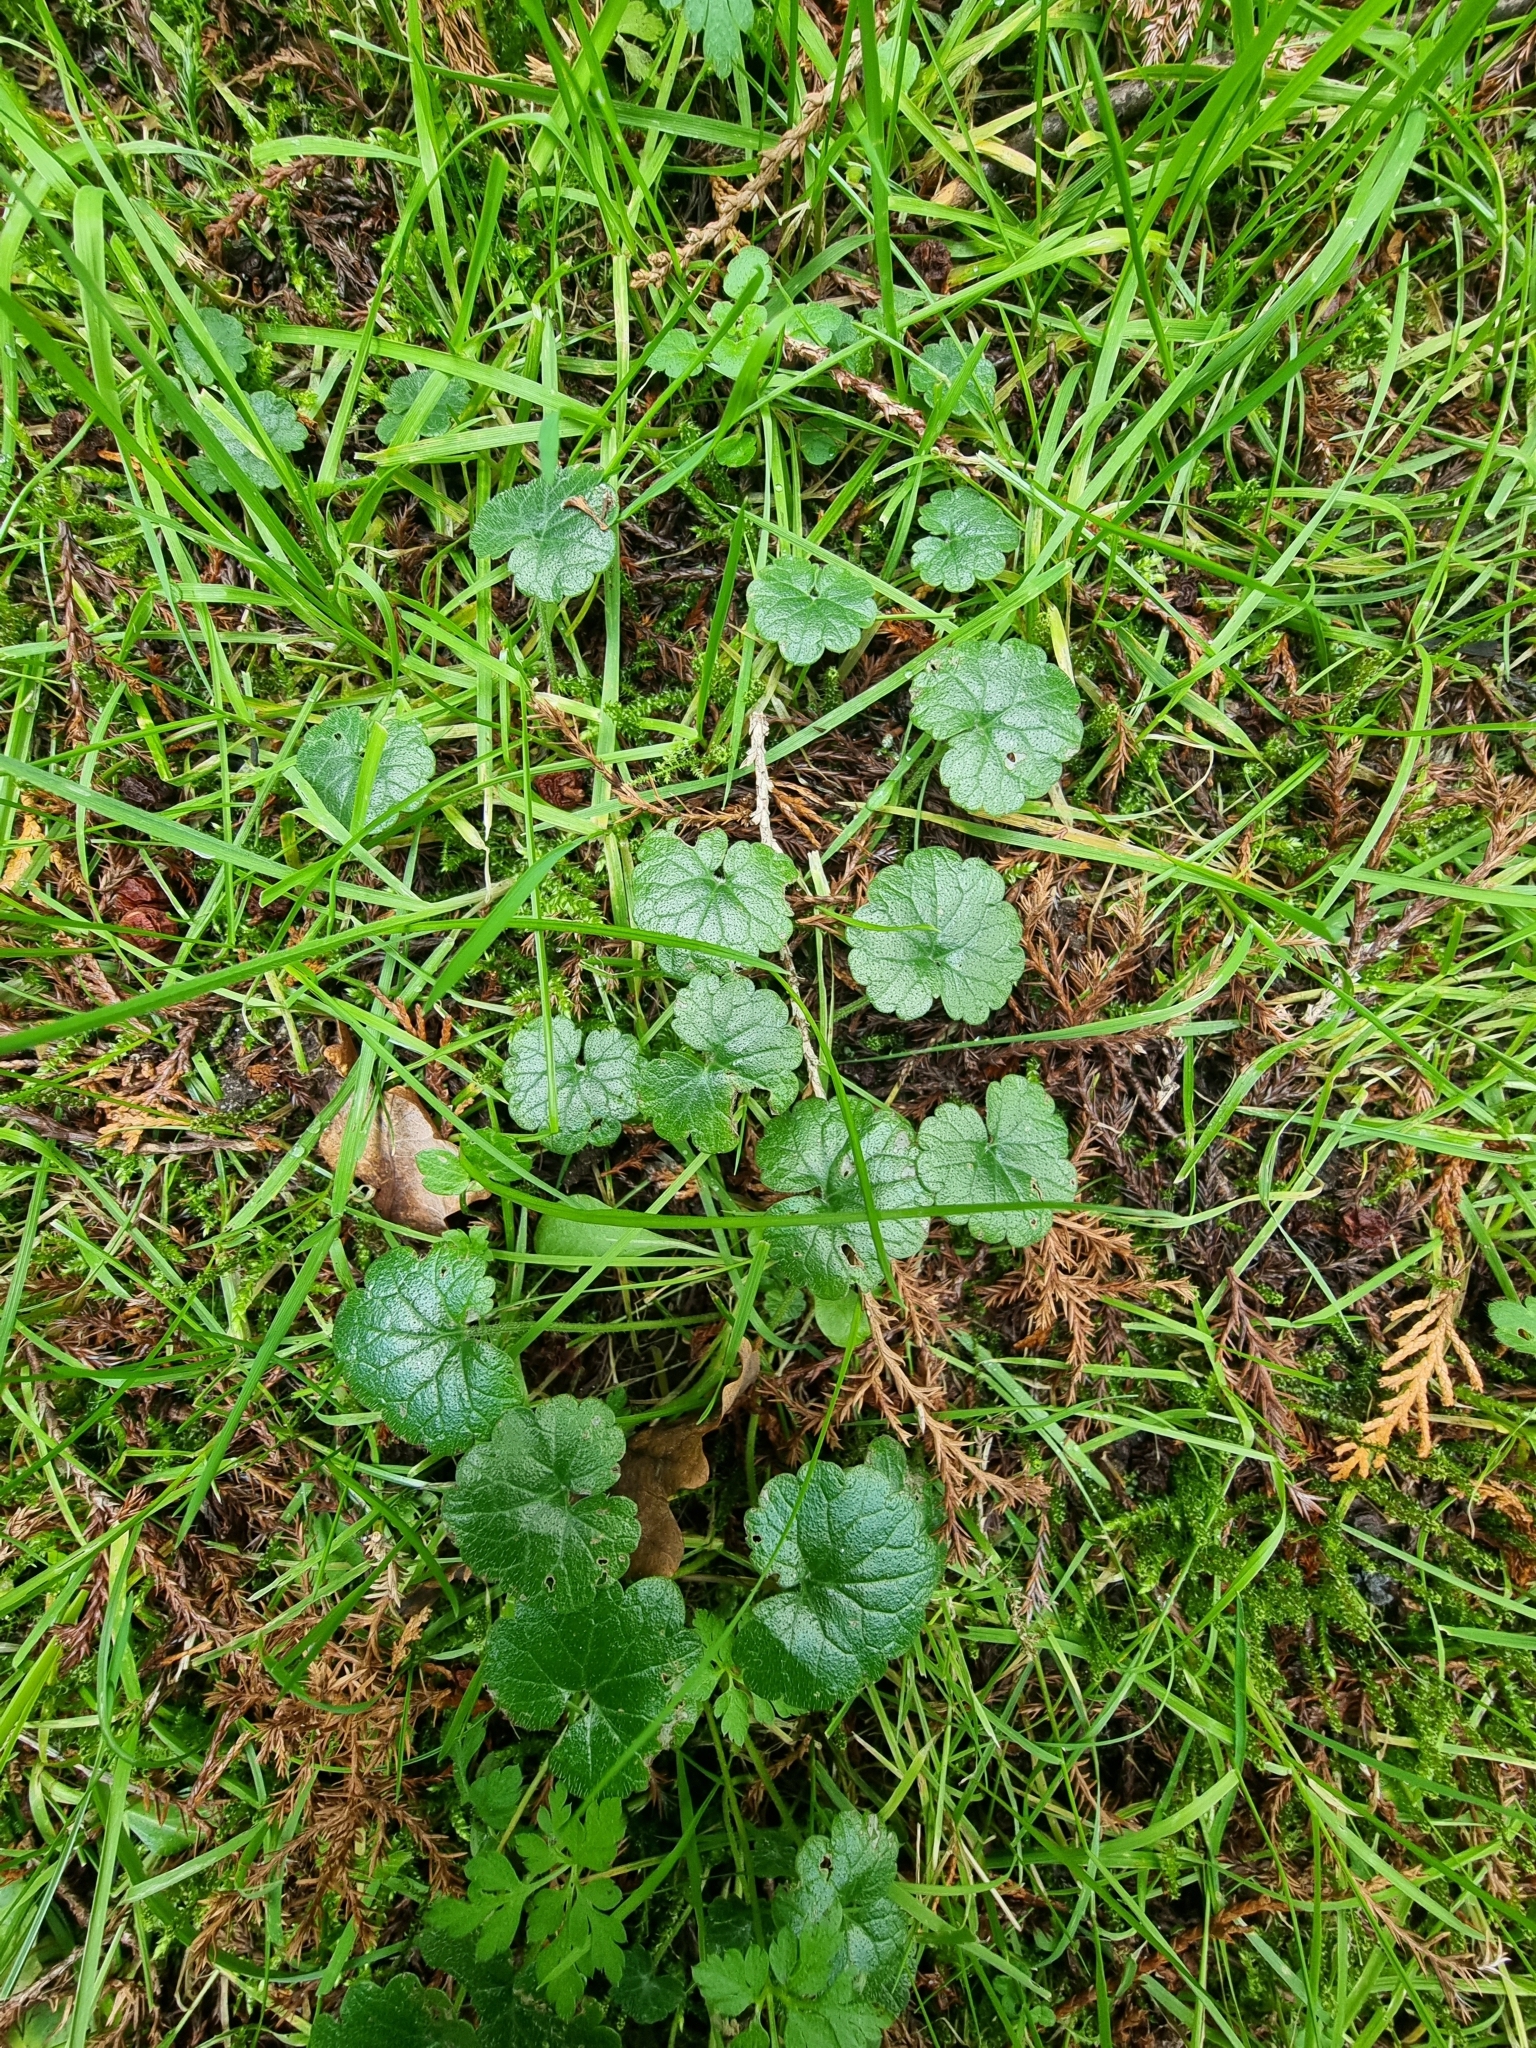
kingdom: Plantae
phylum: Tracheophyta
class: Magnoliopsida
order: Lamiales
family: Lamiaceae
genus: Glechoma
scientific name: Glechoma hederacea
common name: Ground ivy
